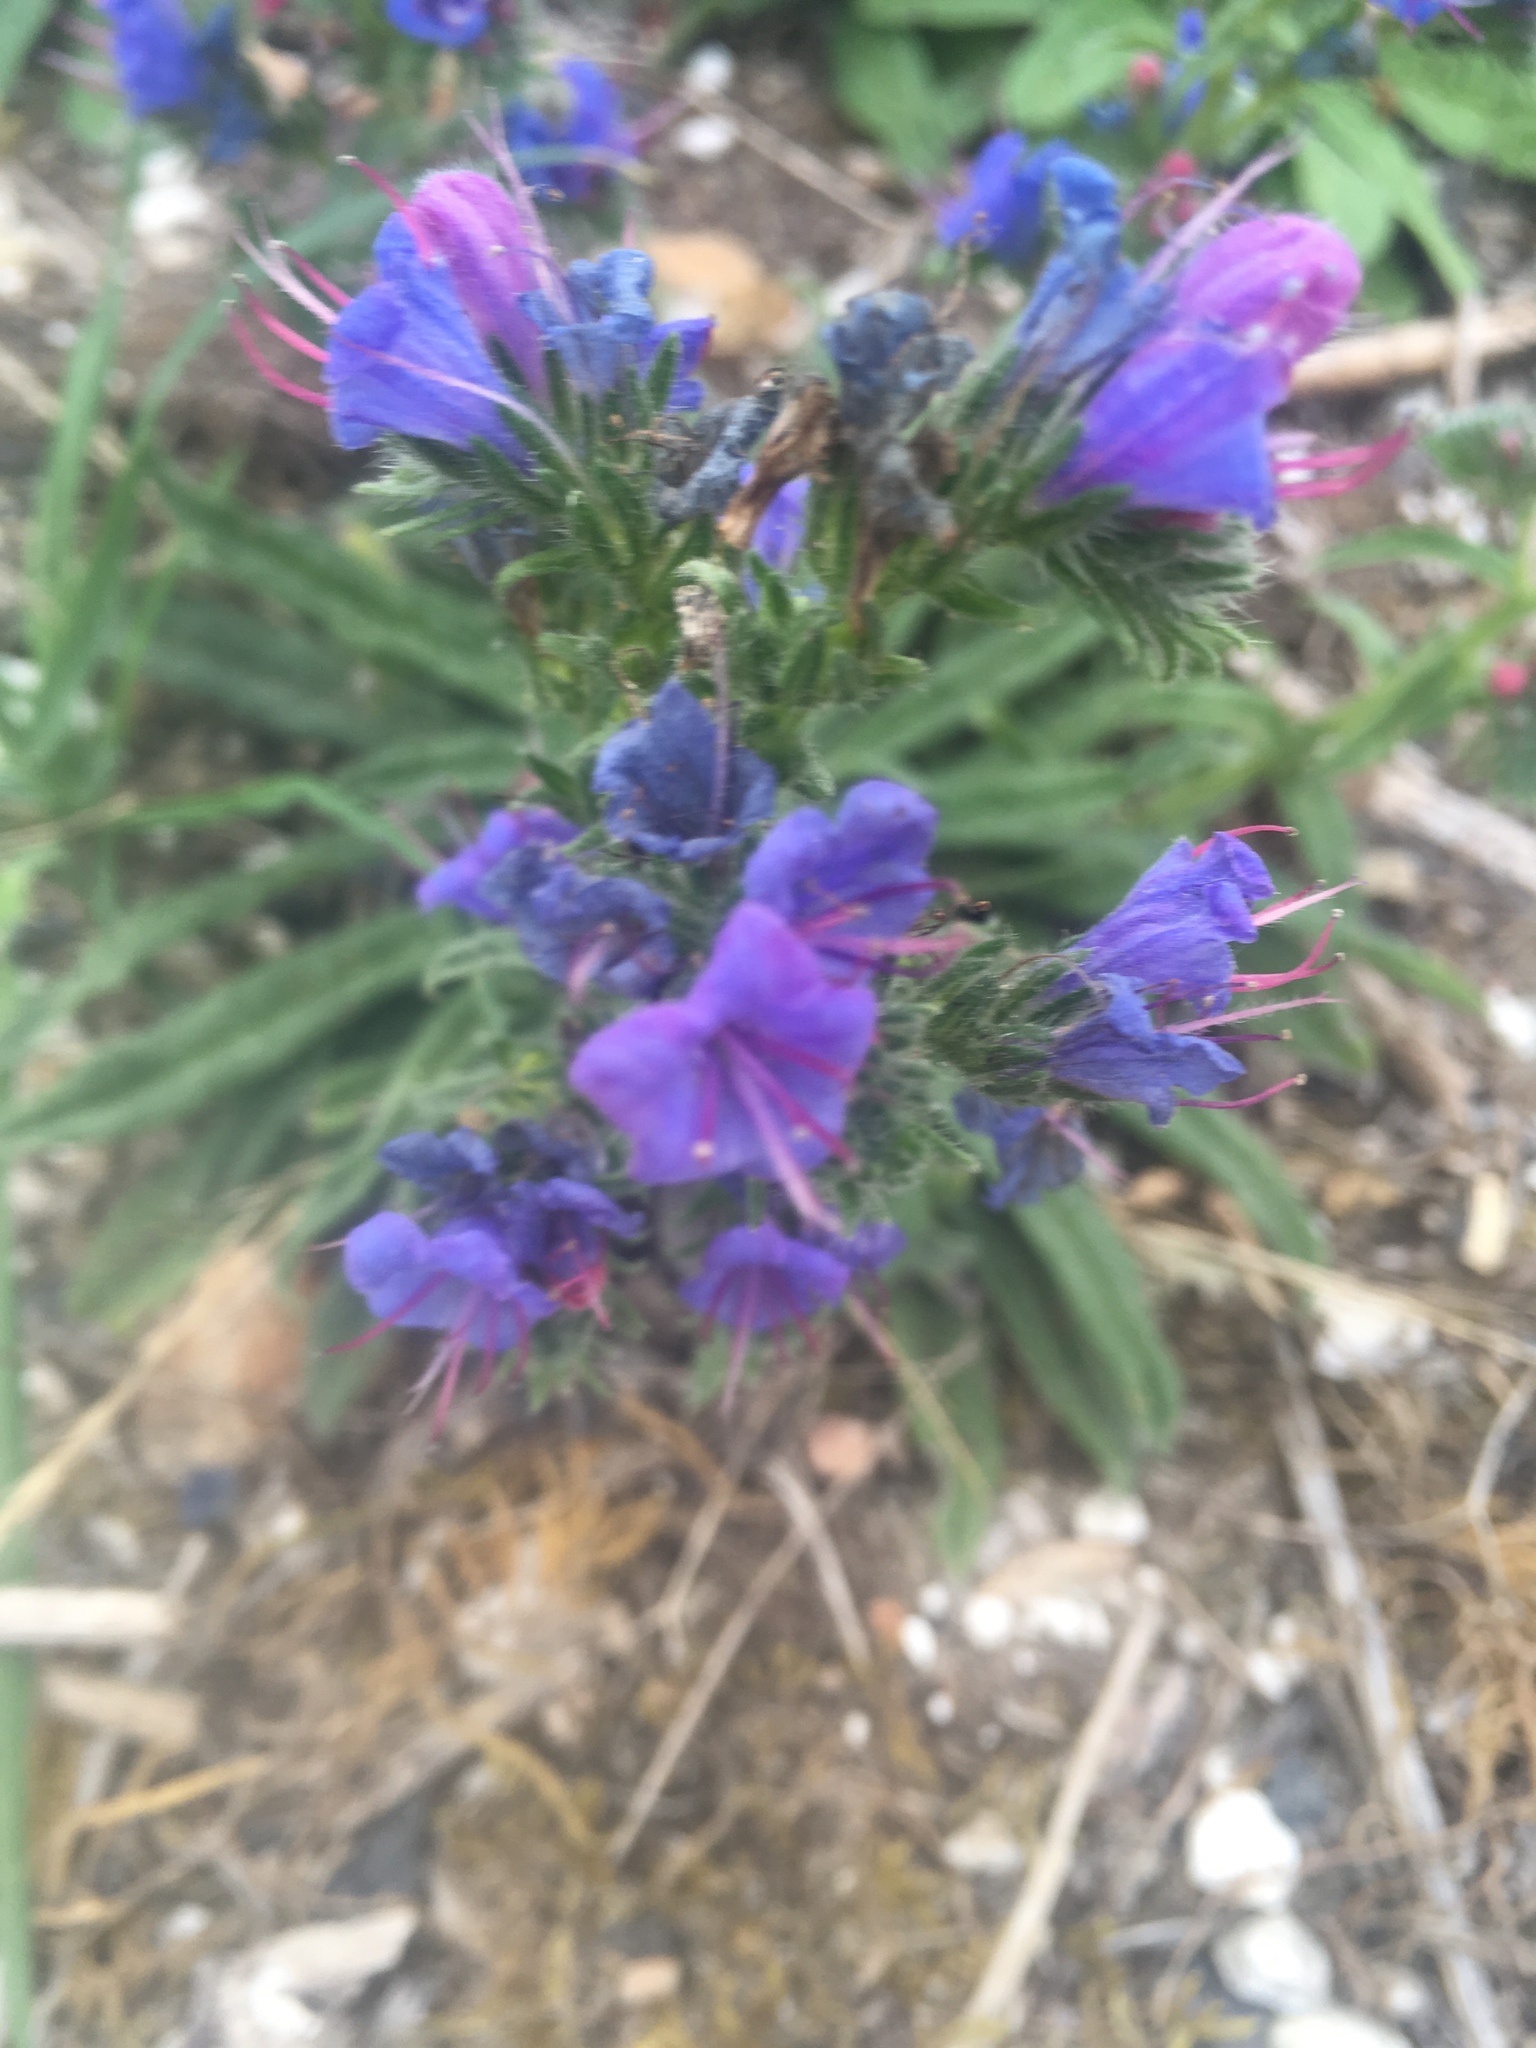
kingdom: Plantae
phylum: Tracheophyta
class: Magnoliopsida
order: Boraginales
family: Boraginaceae
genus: Echium
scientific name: Echium vulgare
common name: Common viper's bugloss
